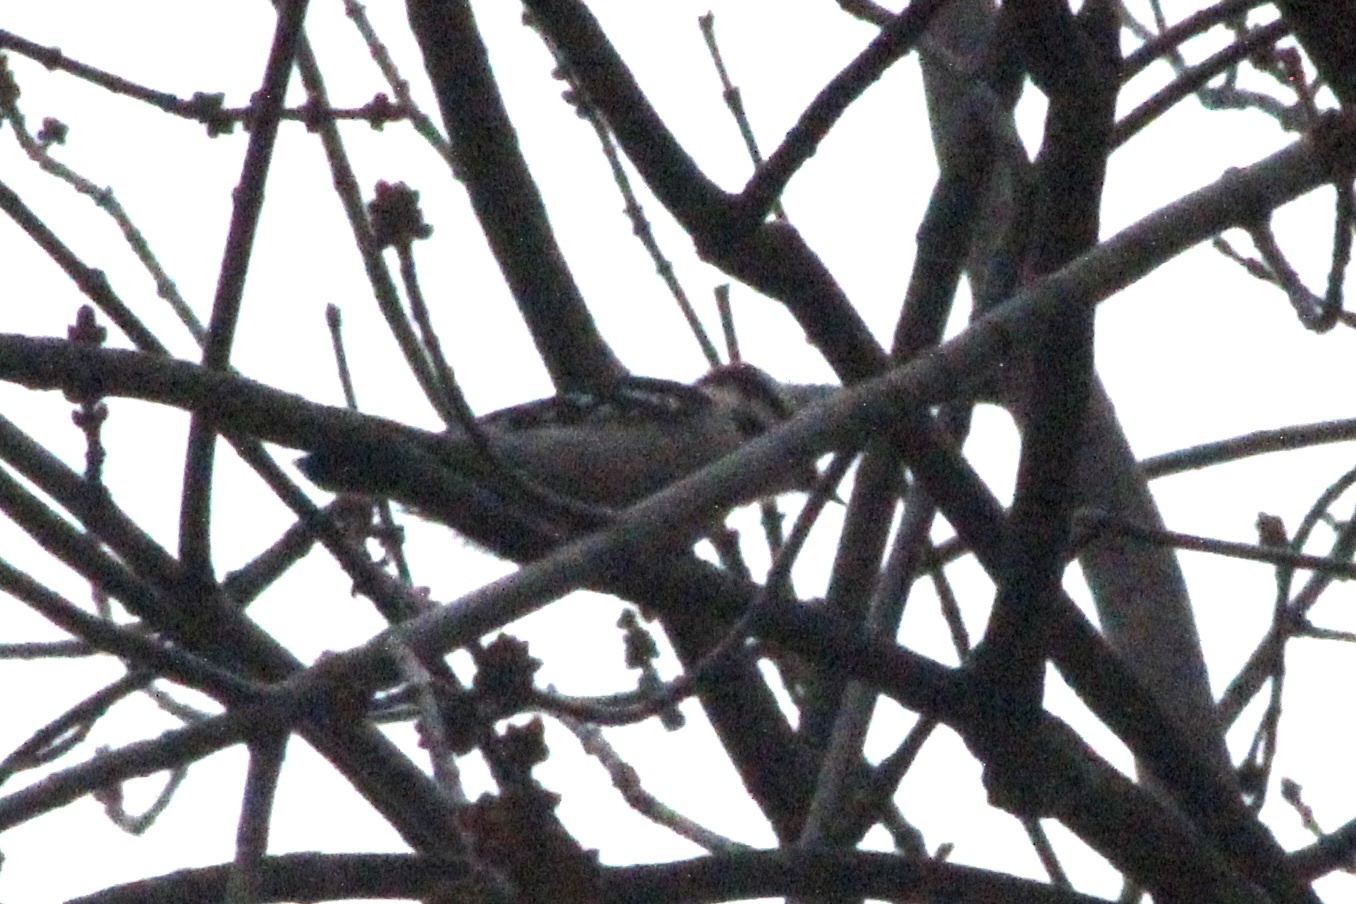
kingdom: Animalia
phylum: Chordata
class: Aves
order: Piciformes
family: Picidae
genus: Dryobates
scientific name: Dryobates pubescens
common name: Downy woodpecker
